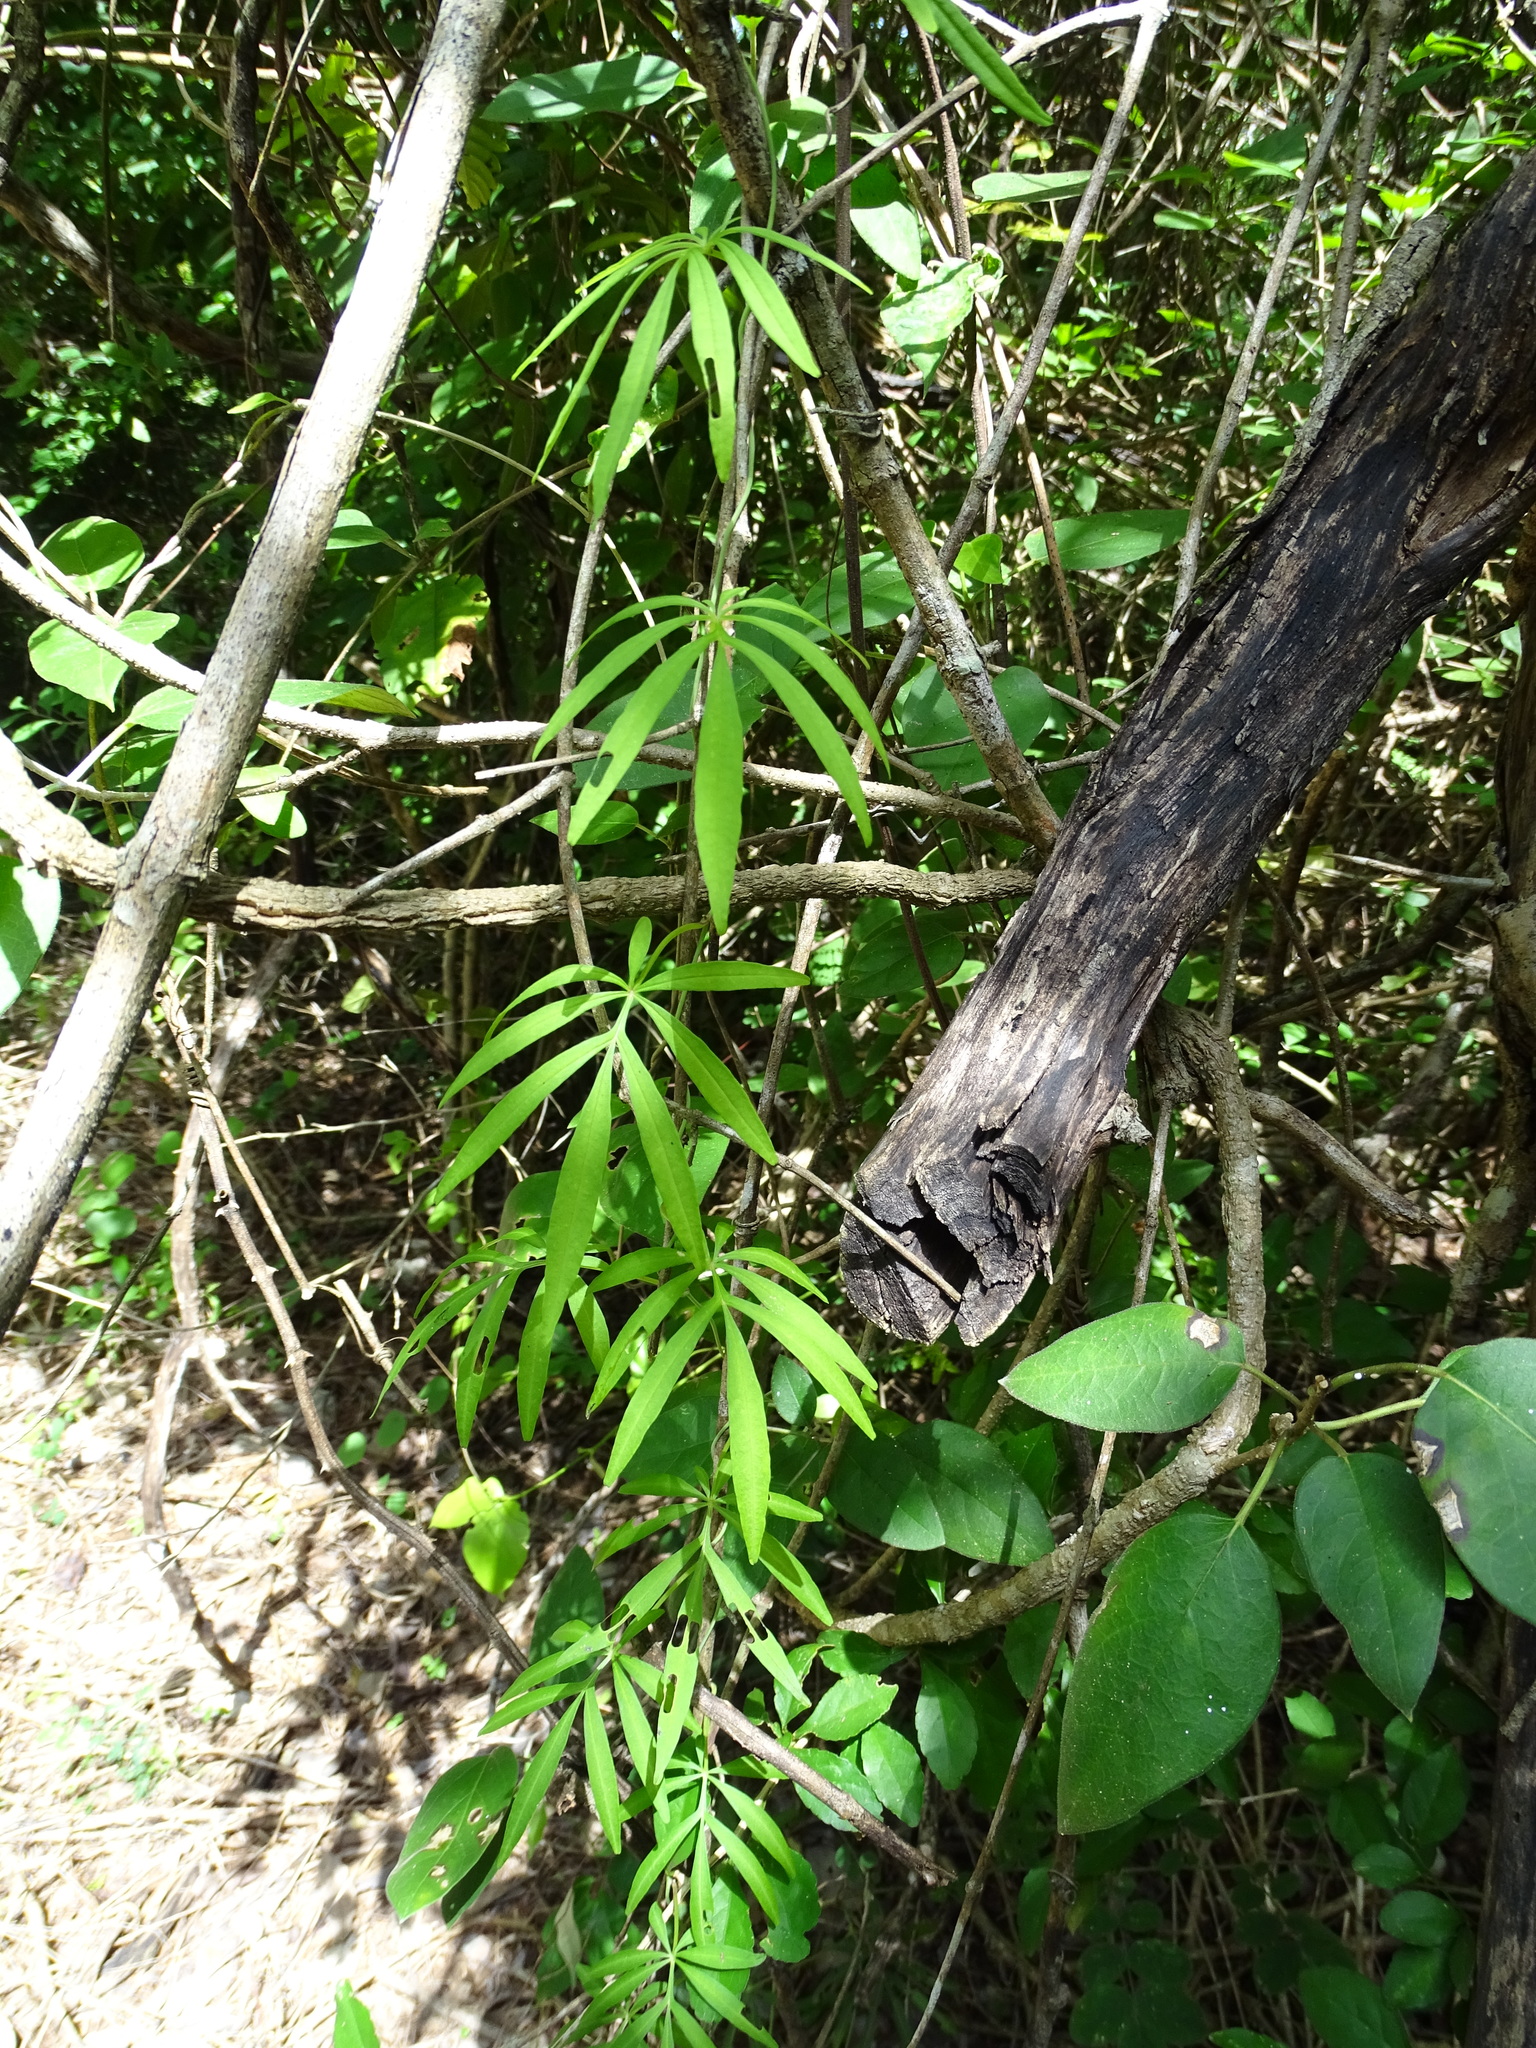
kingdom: Plantae
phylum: Tracheophyta
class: Magnoliopsida
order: Solanales
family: Convolvulaceae
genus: Ipomoea
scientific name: Ipomoea heterodoxa
